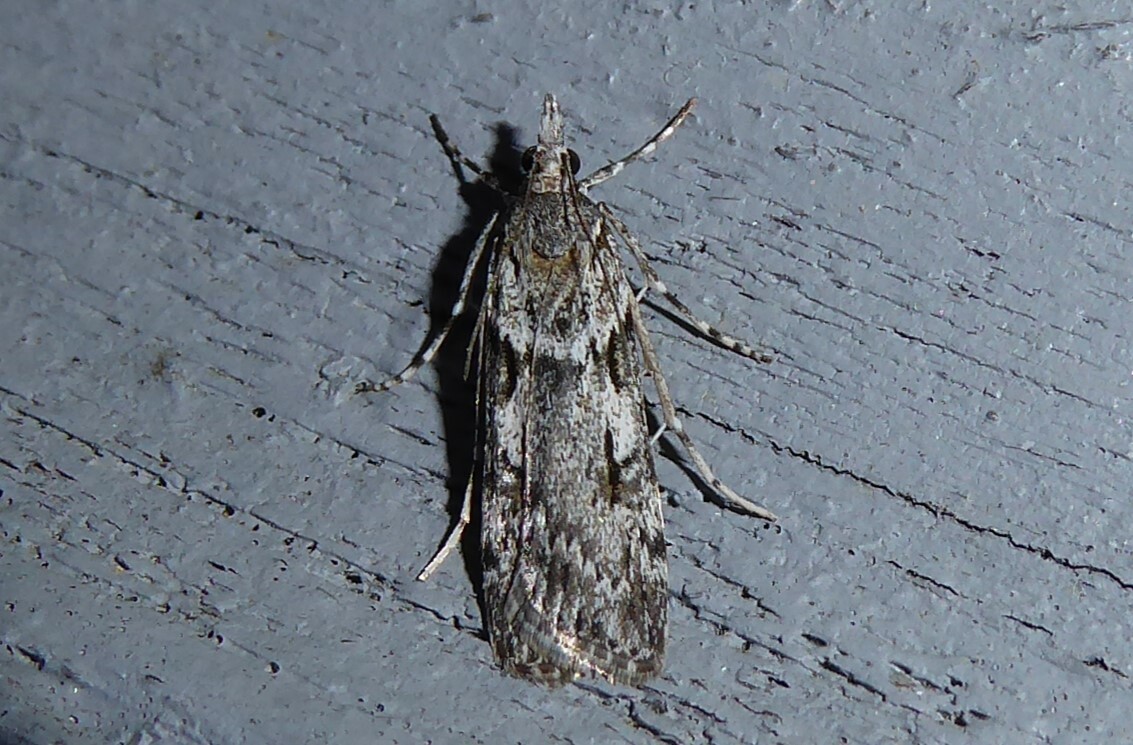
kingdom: Animalia
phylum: Arthropoda
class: Insecta
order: Lepidoptera
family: Crambidae
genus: Scoparia
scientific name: Scoparia halopis
